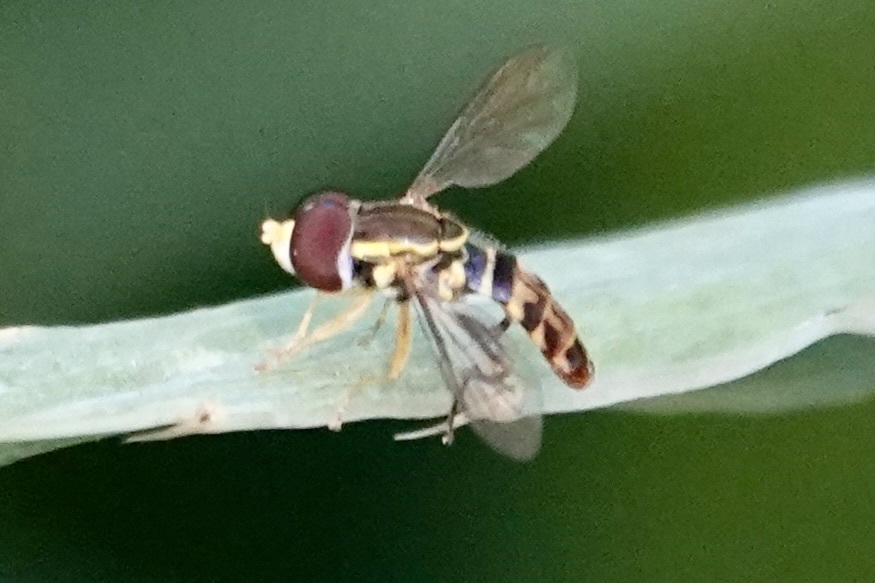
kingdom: Animalia
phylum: Arthropoda
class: Insecta
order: Diptera
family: Syrphidae
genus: Toxomerus
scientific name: Toxomerus geminatus
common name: Eastern calligrapher
